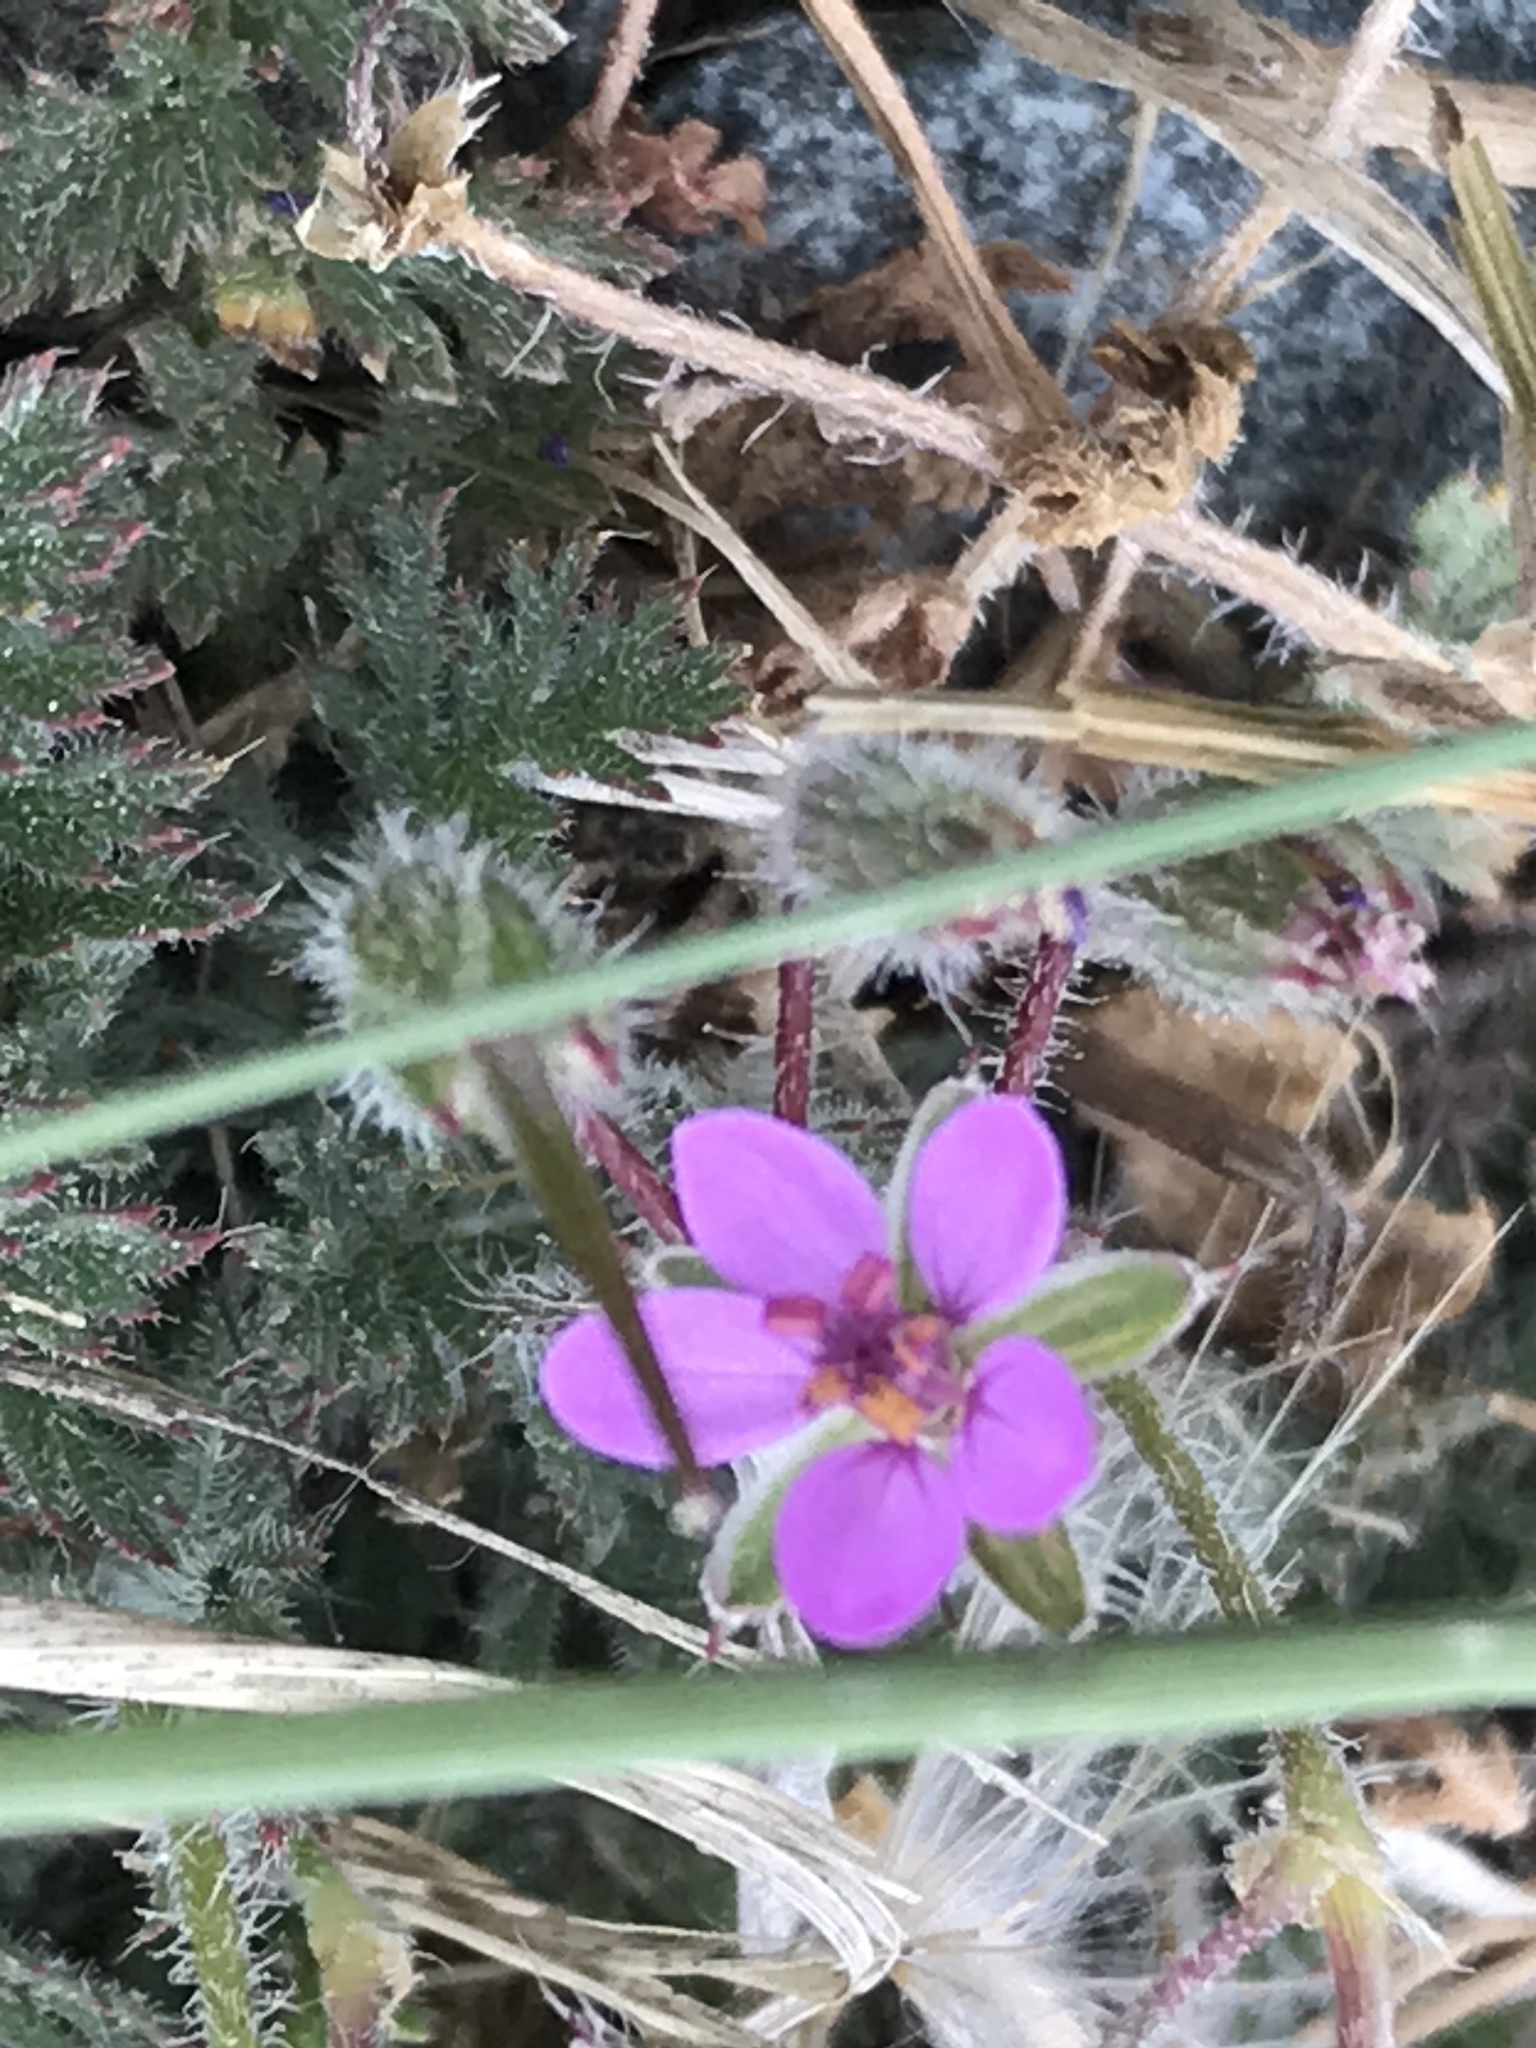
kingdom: Plantae
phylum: Tracheophyta
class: Magnoliopsida
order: Geraniales
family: Geraniaceae
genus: Erodium
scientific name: Erodium cicutarium
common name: Common stork's-bill
